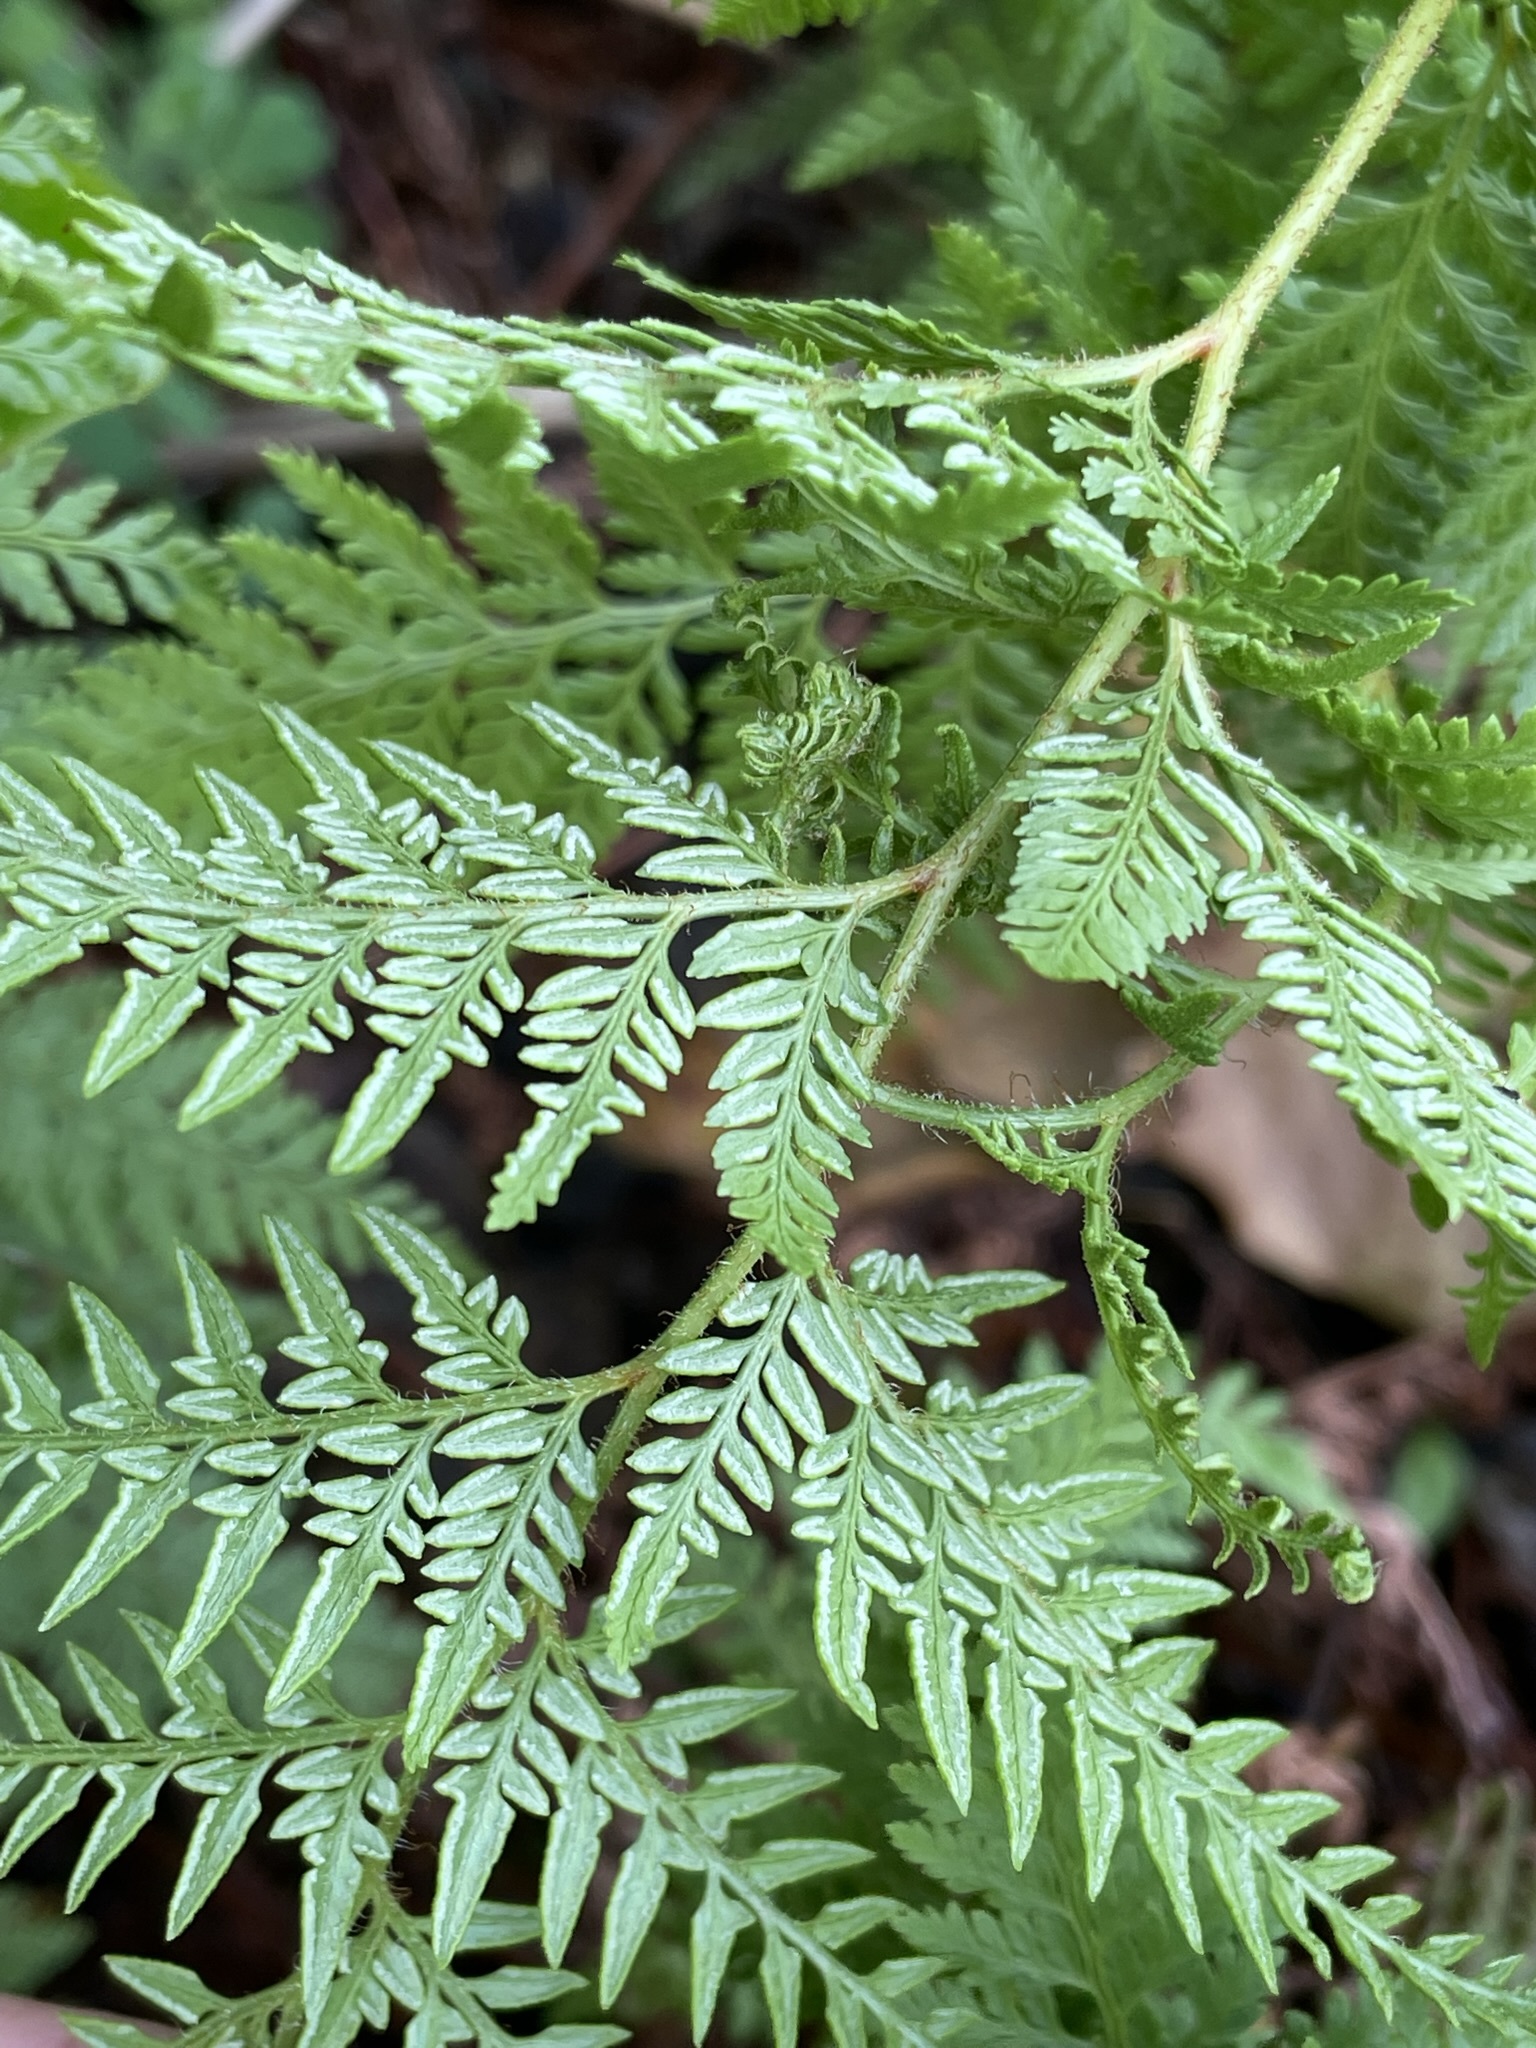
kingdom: Plantae
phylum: Tracheophyta
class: Polypodiopsida
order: Polypodiales
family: Dennstaedtiaceae
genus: Paesia
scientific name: Paesia scaberula
